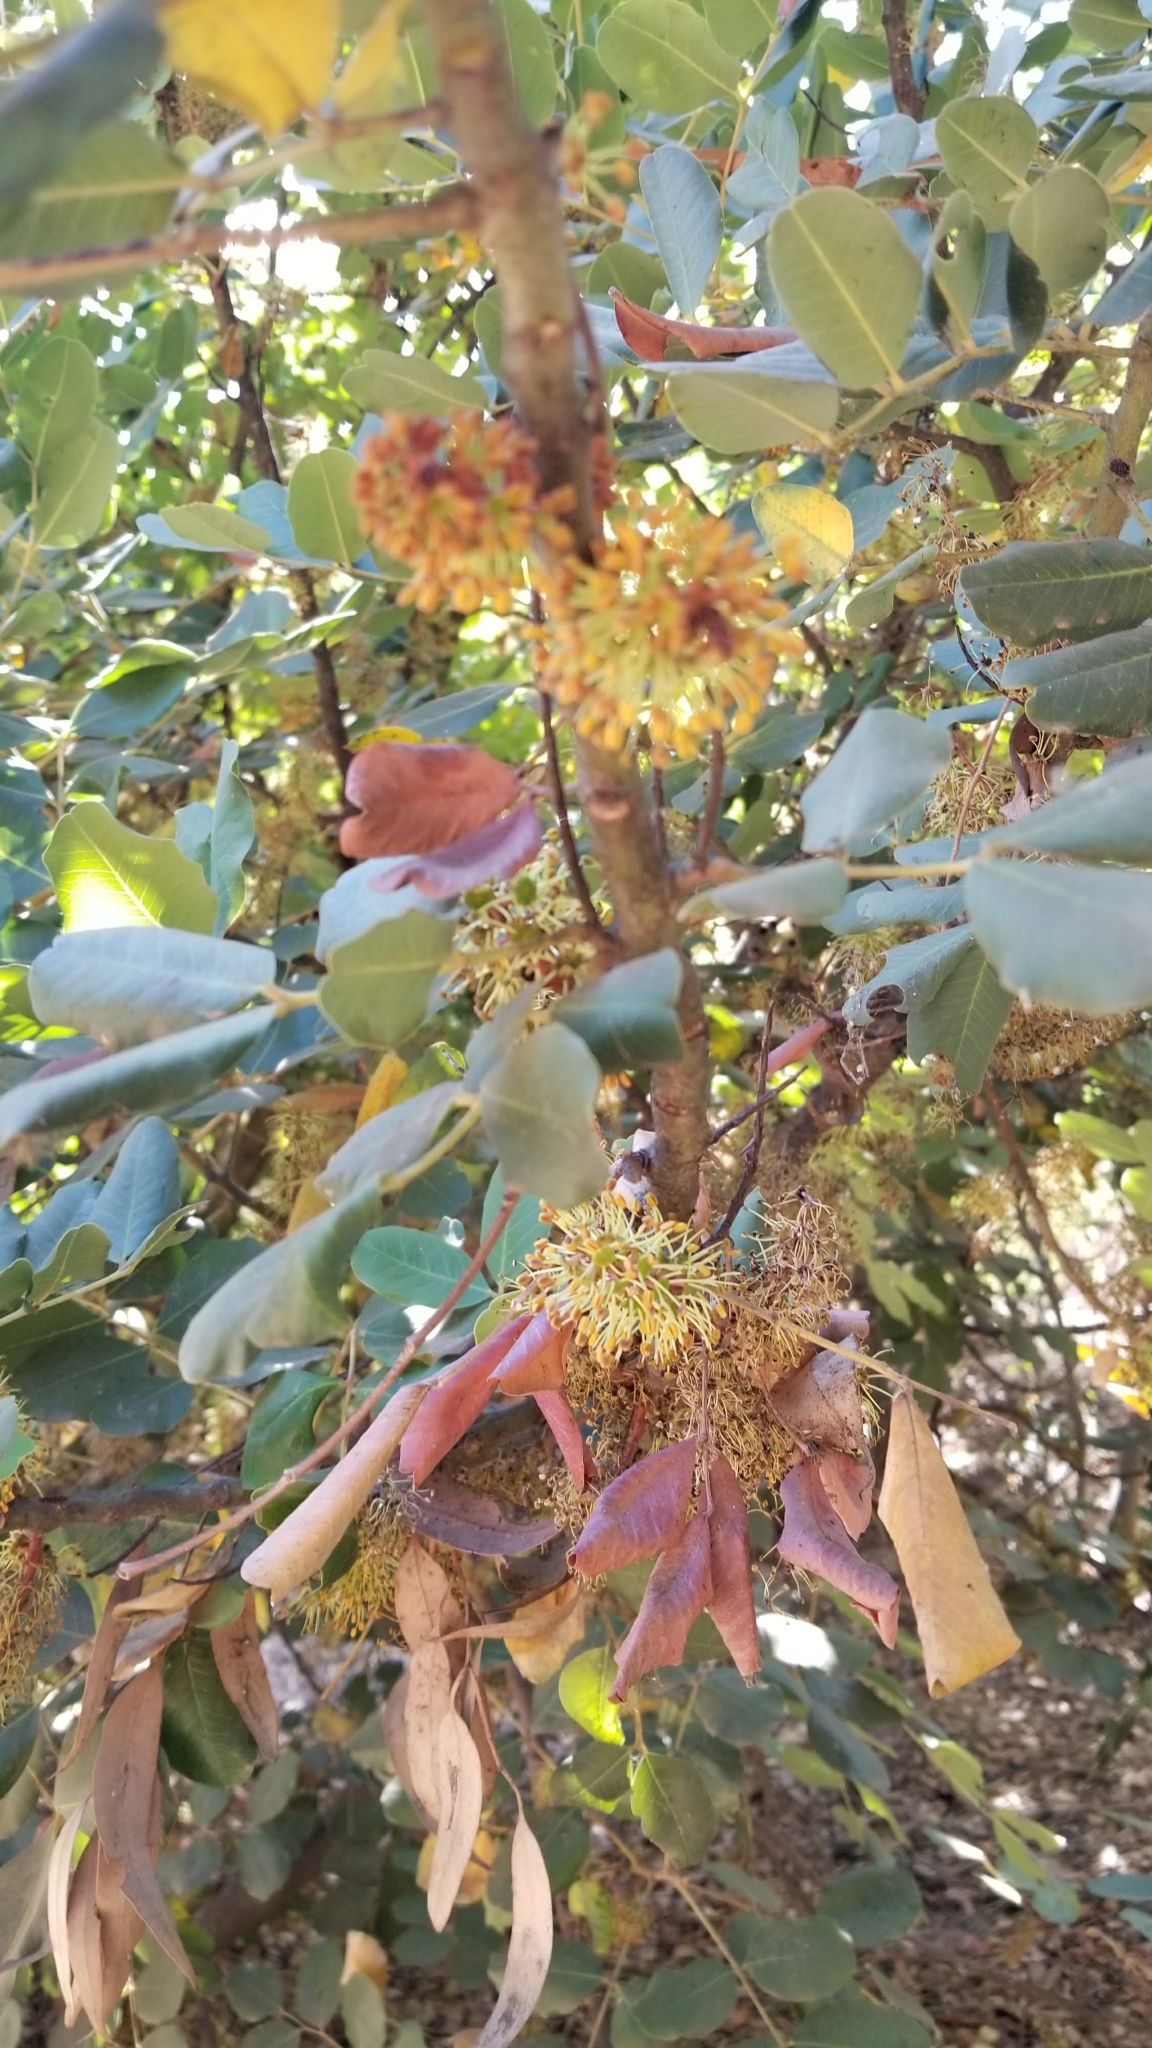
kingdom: Plantae
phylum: Tracheophyta
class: Magnoliopsida
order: Fabales
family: Fabaceae
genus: Ceratonia
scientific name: Ceratonia siliqua
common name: Carob
